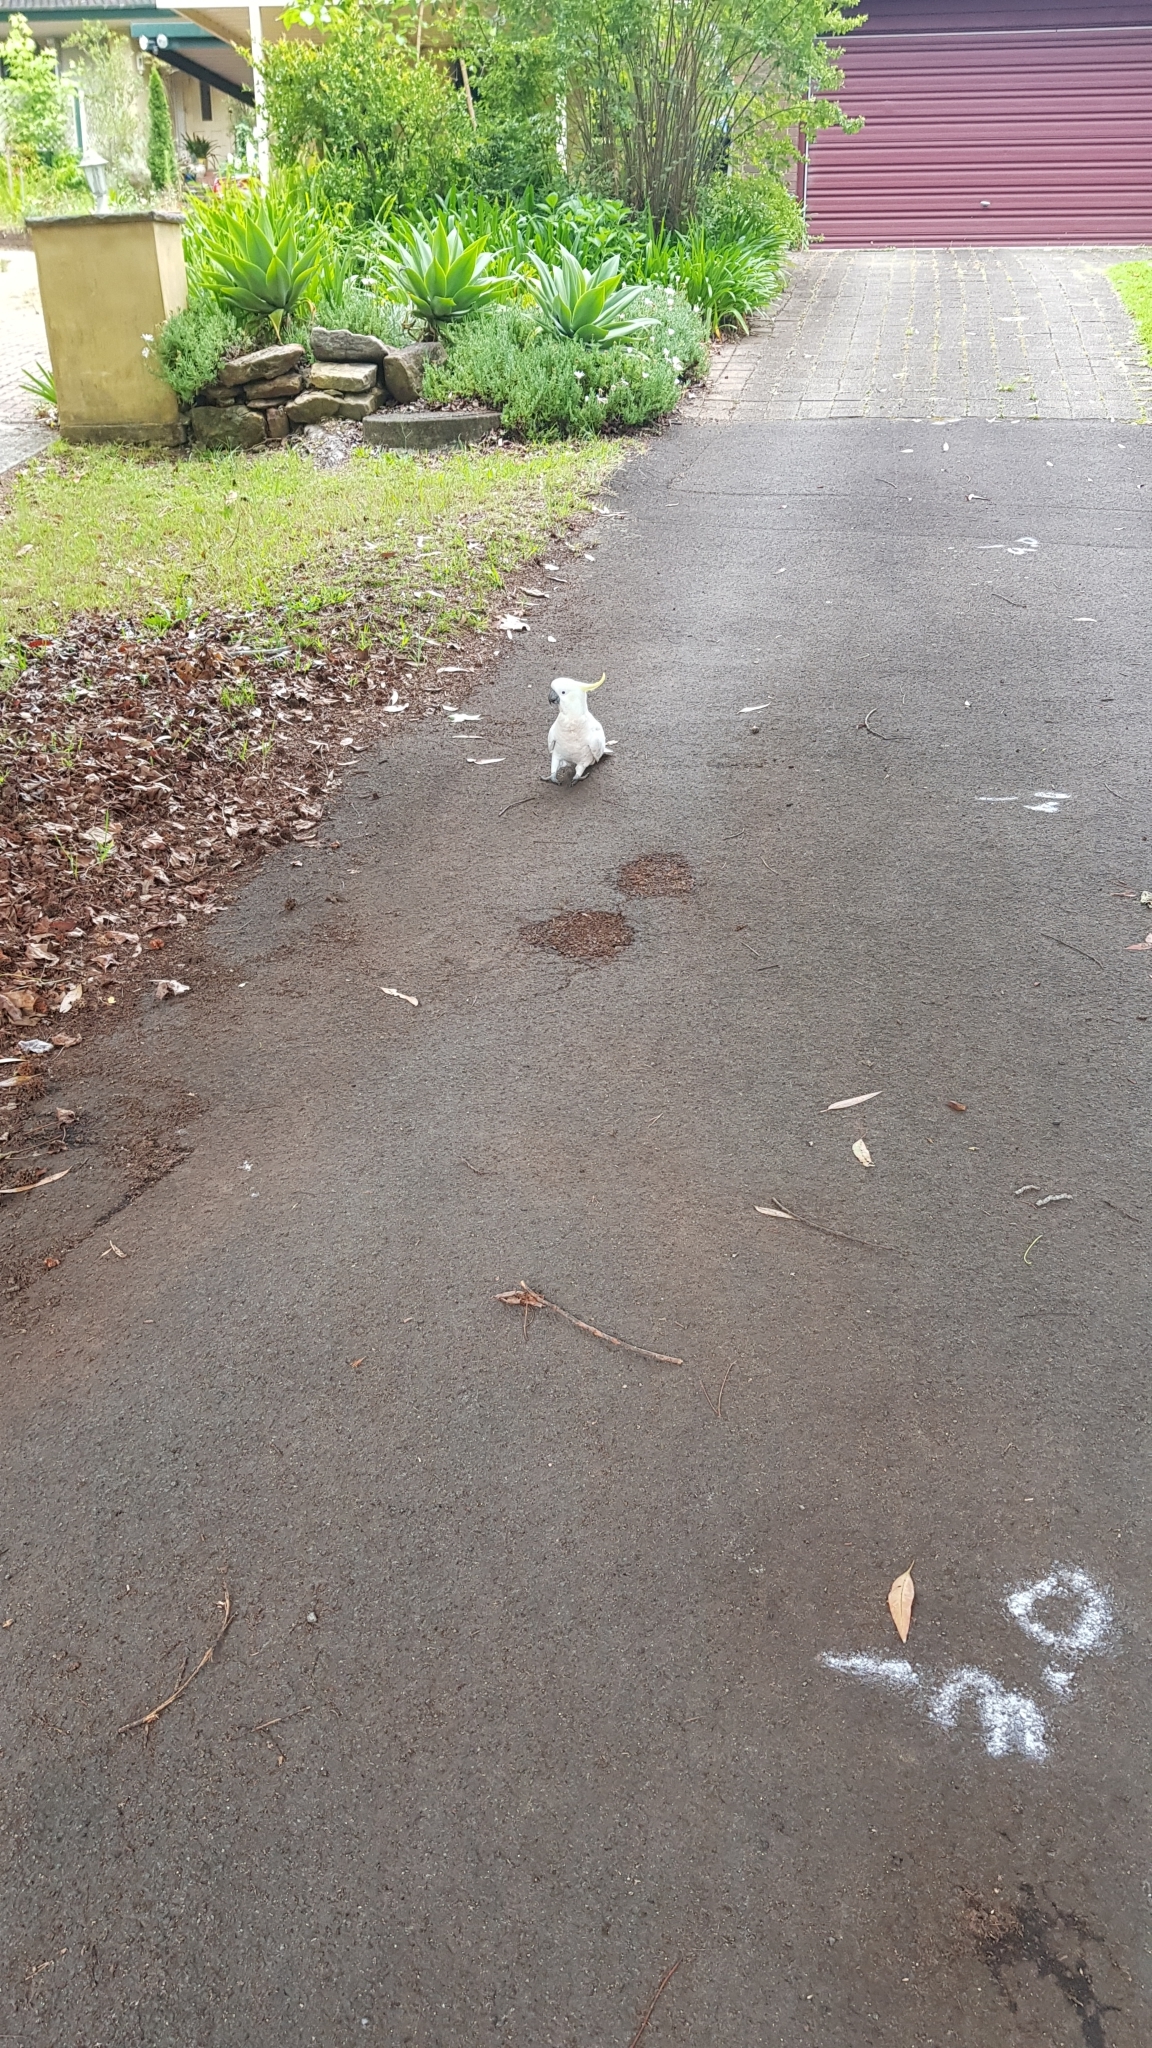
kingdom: Animalia
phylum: Chordata
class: Aves
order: Psittaciformes
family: Psittacidae
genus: Cacatua
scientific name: Cacatua galerita
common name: Sulphur-crested cockatoo
